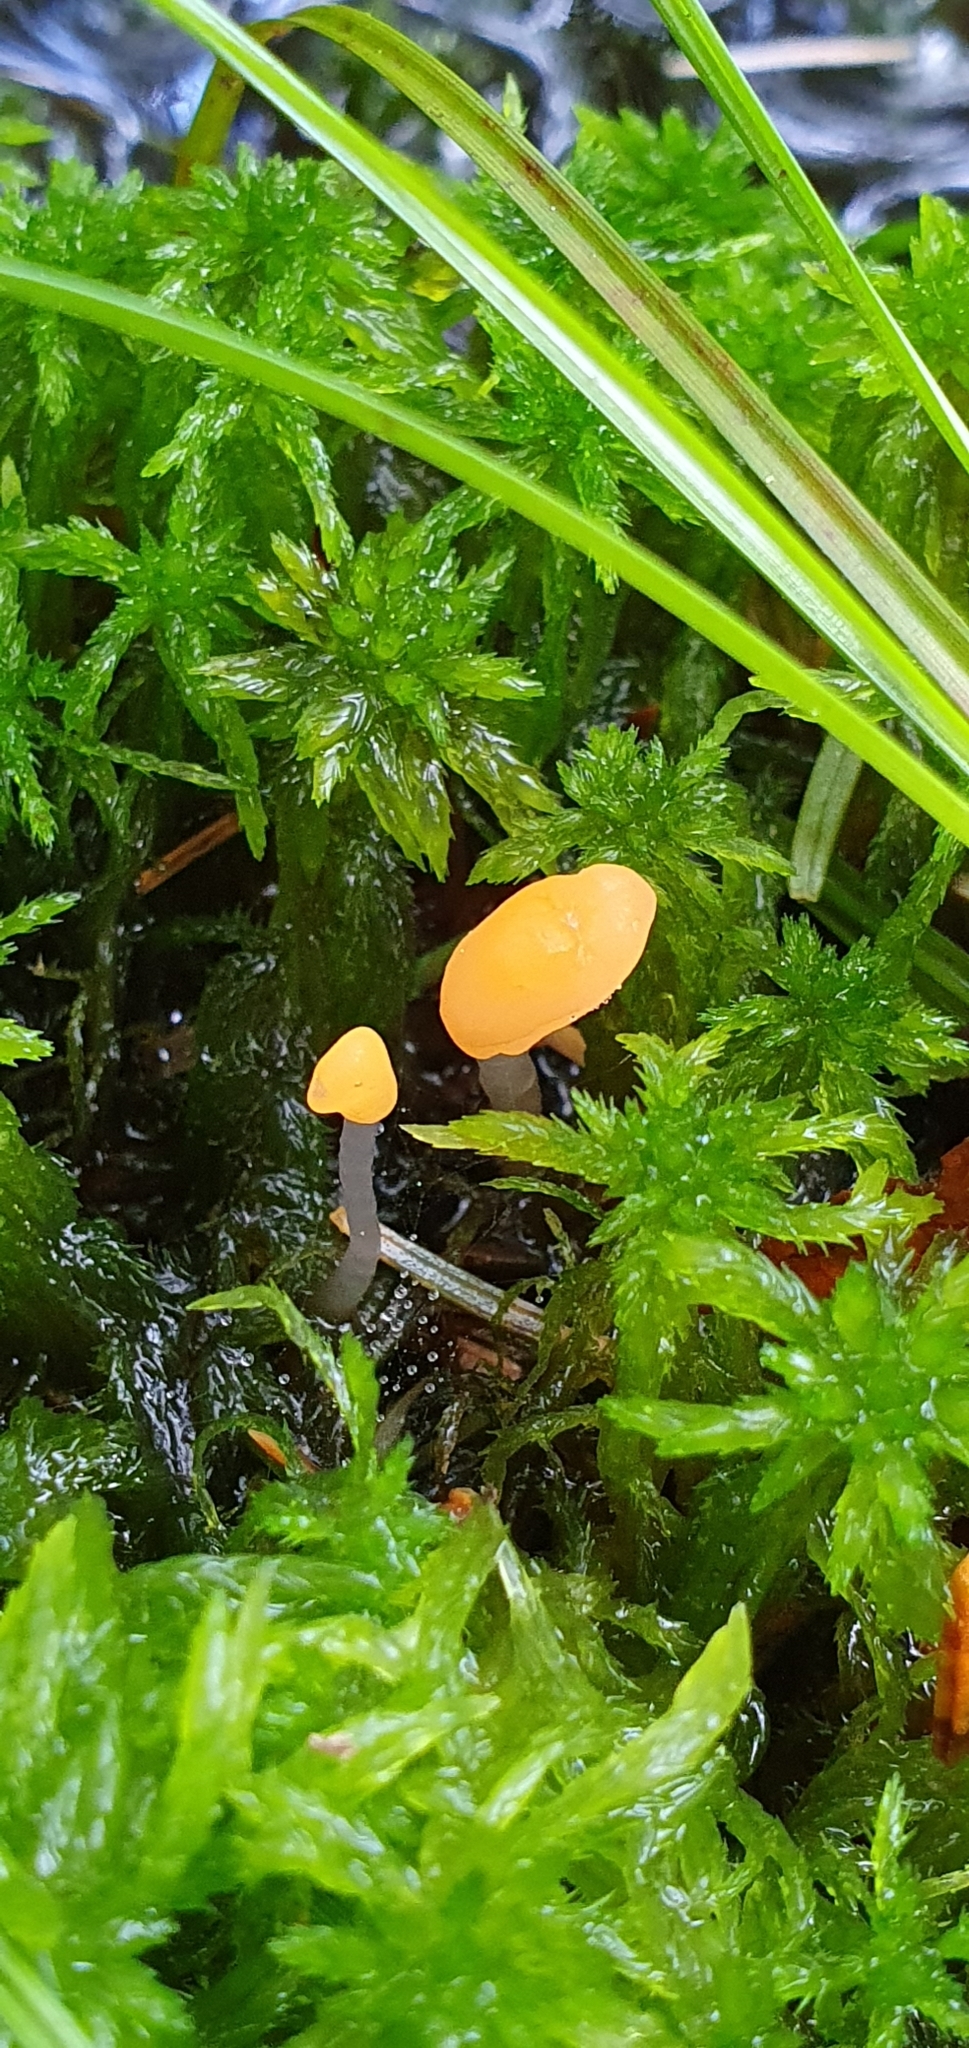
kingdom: Fungi
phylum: Ascomycota
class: Leotiomycetes
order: Helotiales
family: Cenangiaceae
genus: Mitrula
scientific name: Mitrula paludosa
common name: Bog beacon
